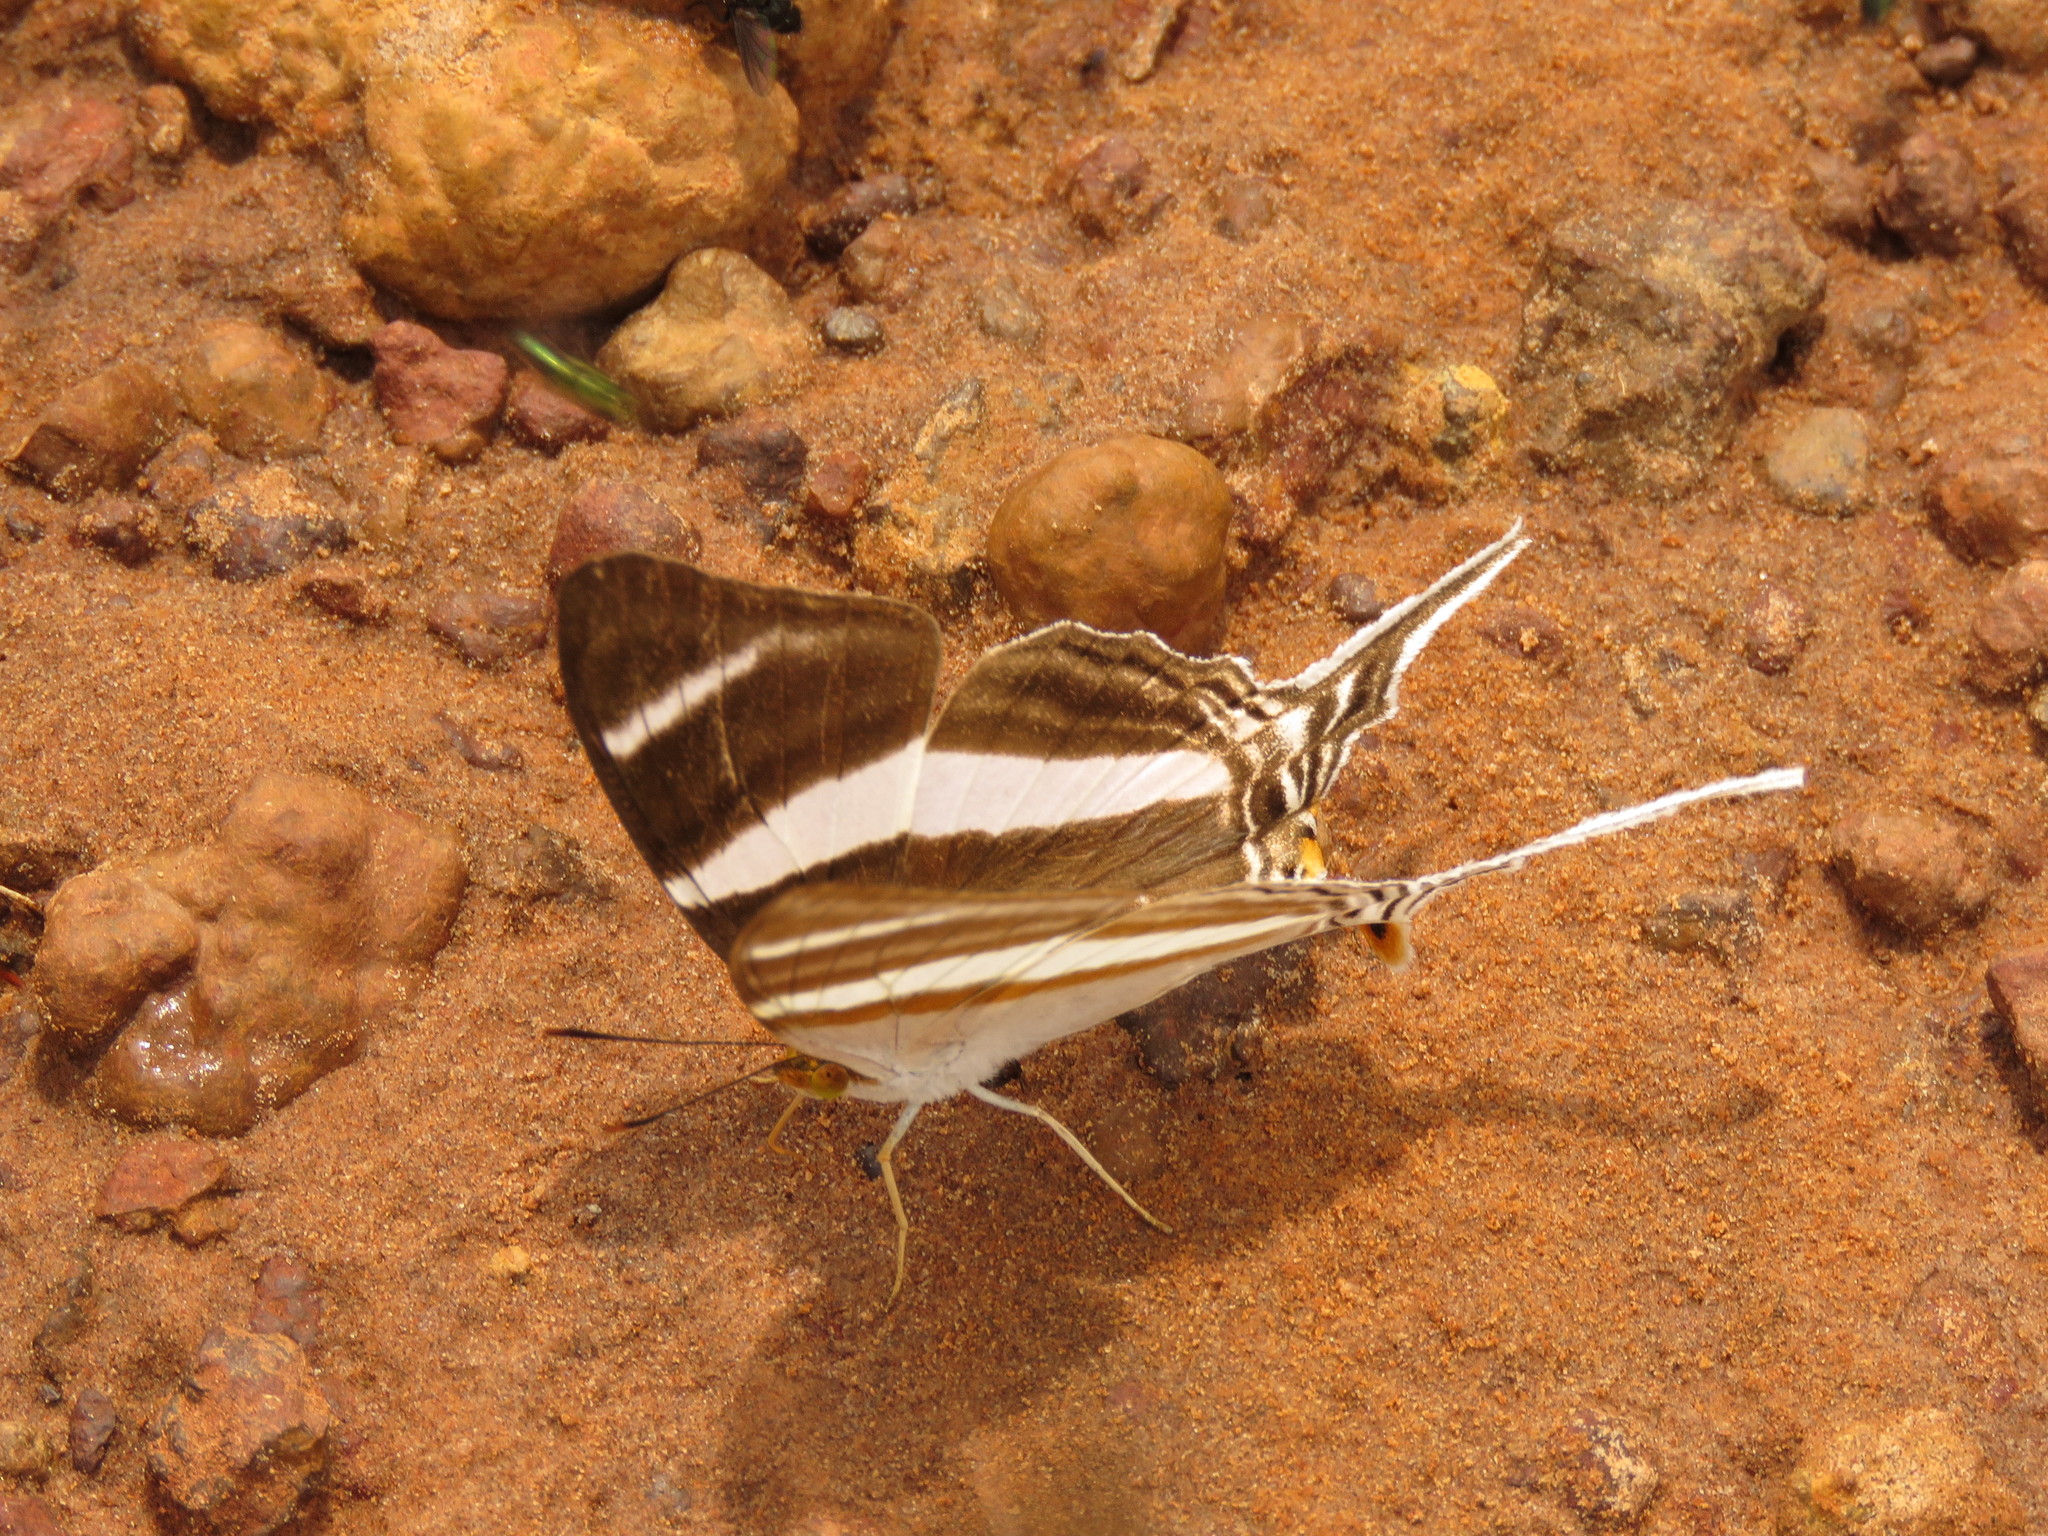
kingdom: Animalia
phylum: Arthropoda
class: Insecta
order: Lepidoptera
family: Nymphalidae
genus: Marpesia
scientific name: Marpesia orsilochus
